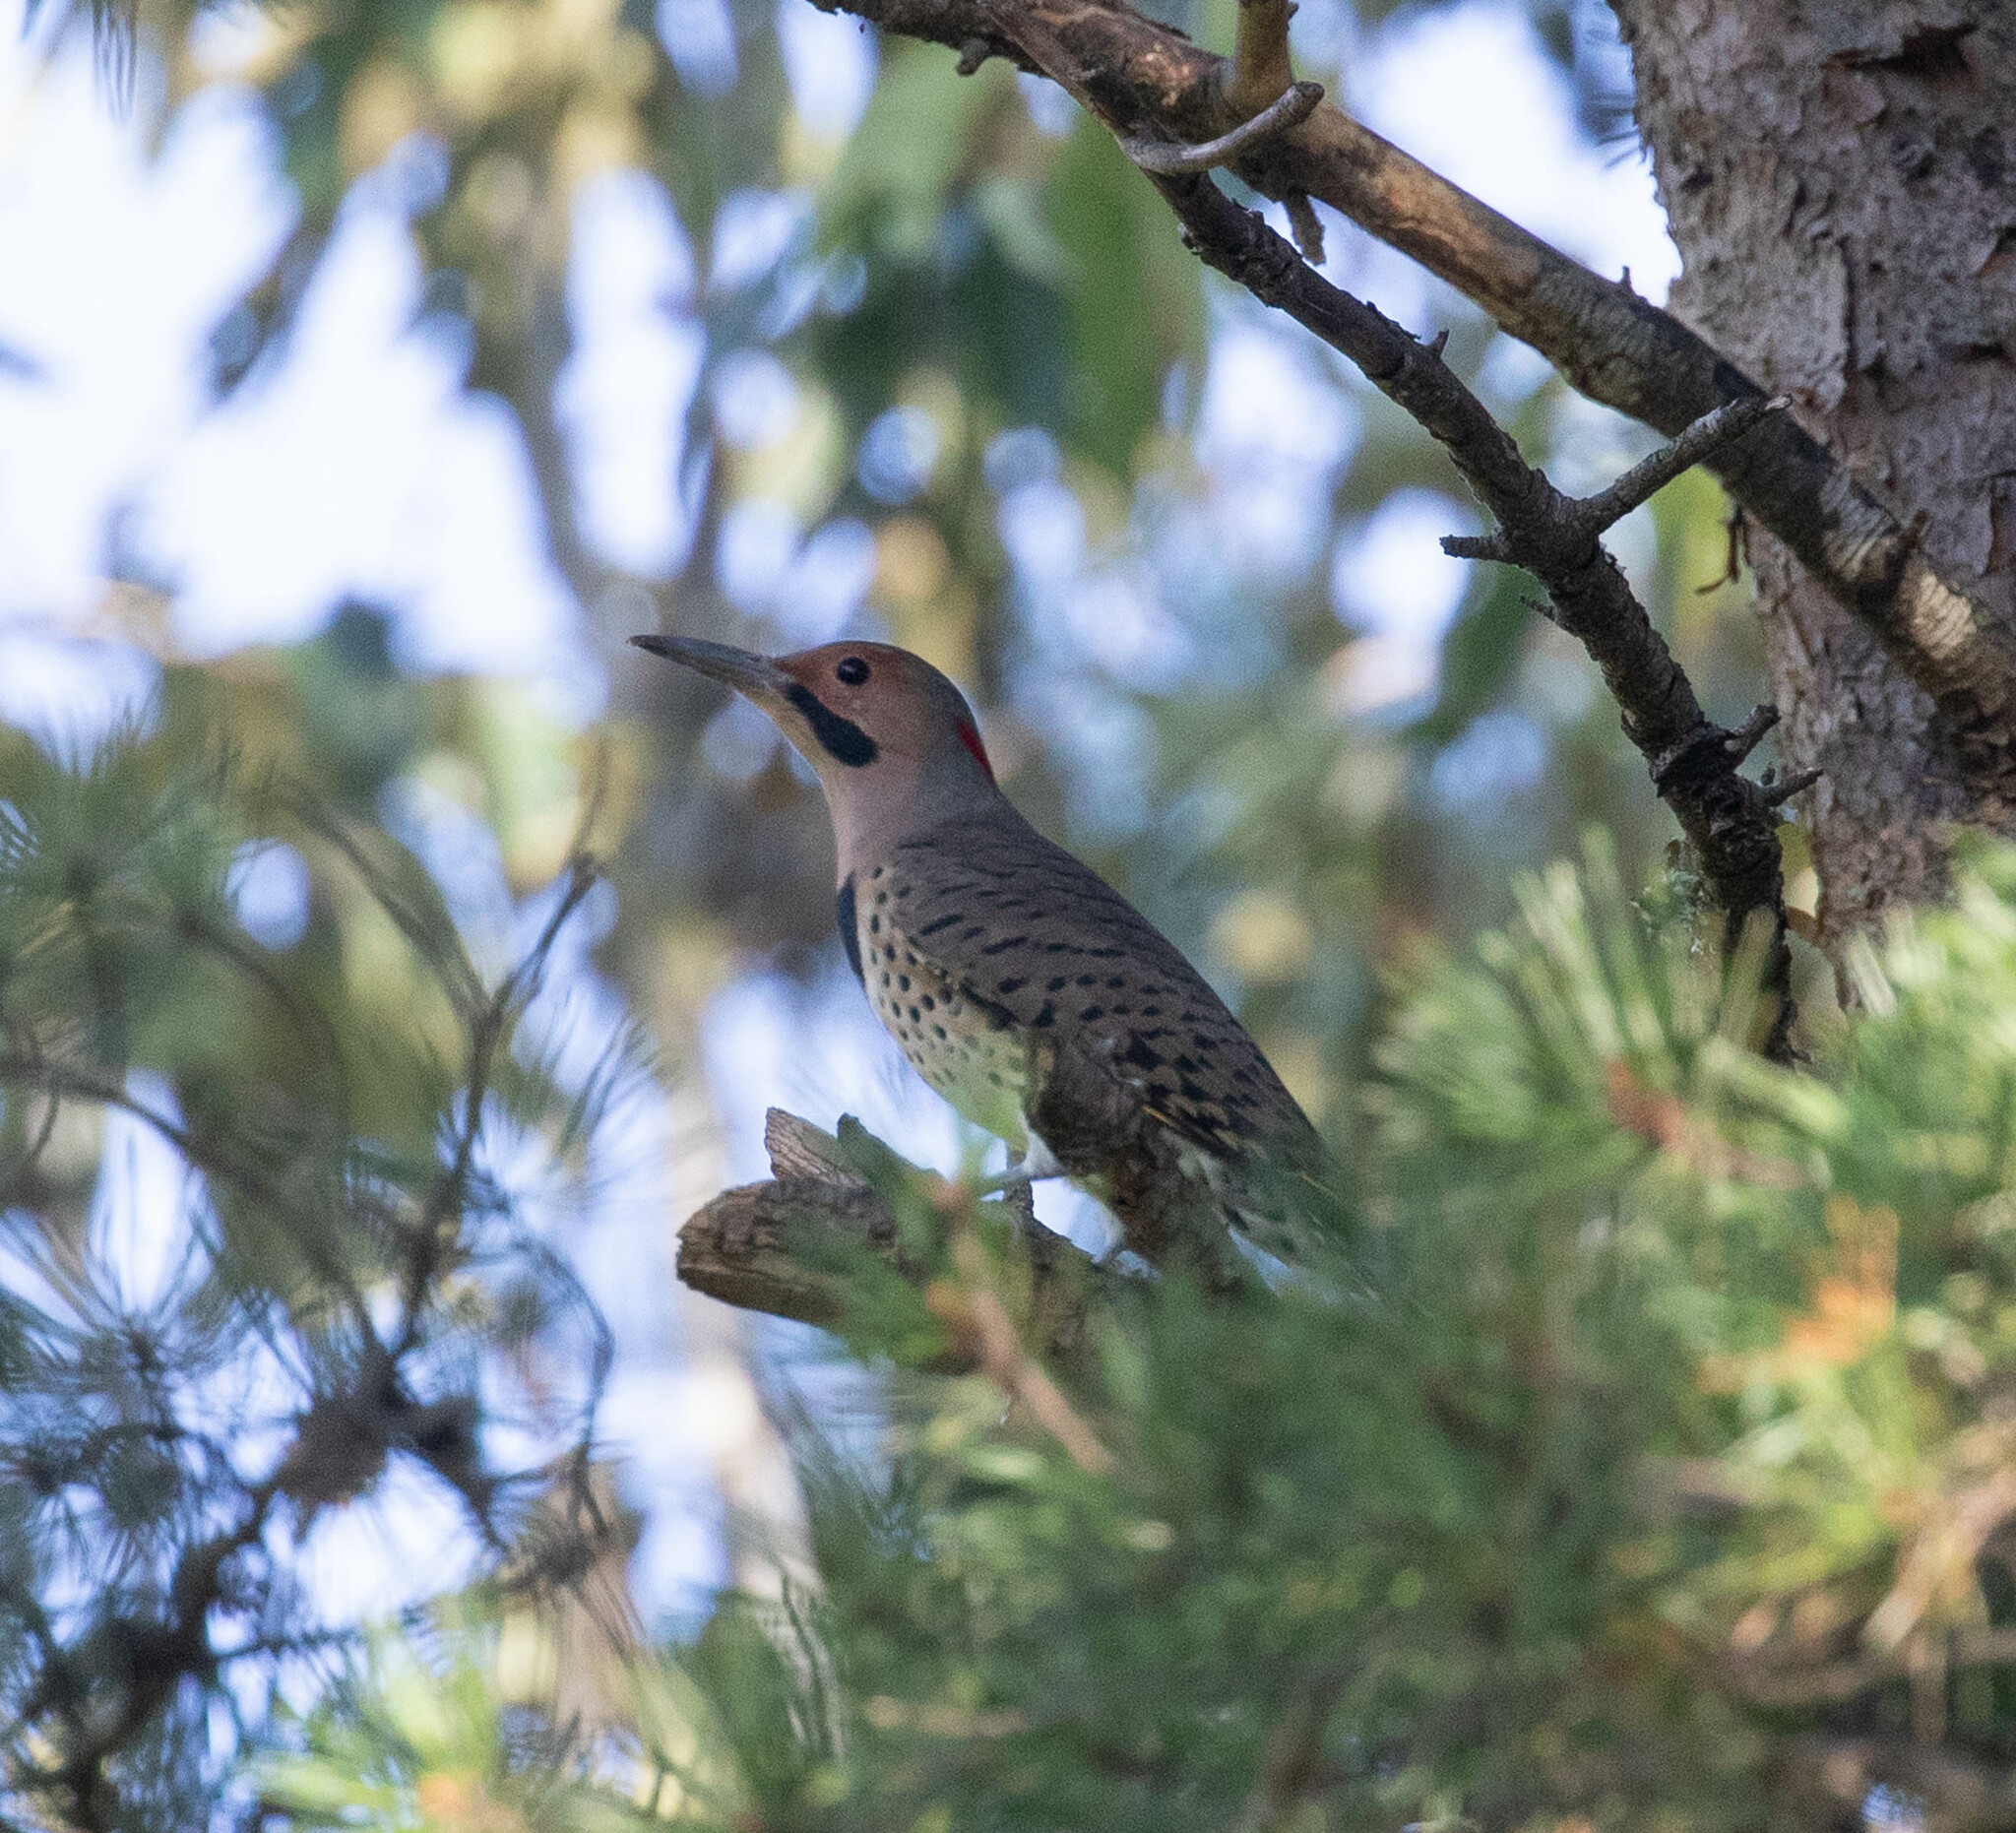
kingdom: Animalia
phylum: Chordata
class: Aves
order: Piciformes
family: Picidae
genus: Colaptes
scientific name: Colaptes auratus
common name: Northern flicker
